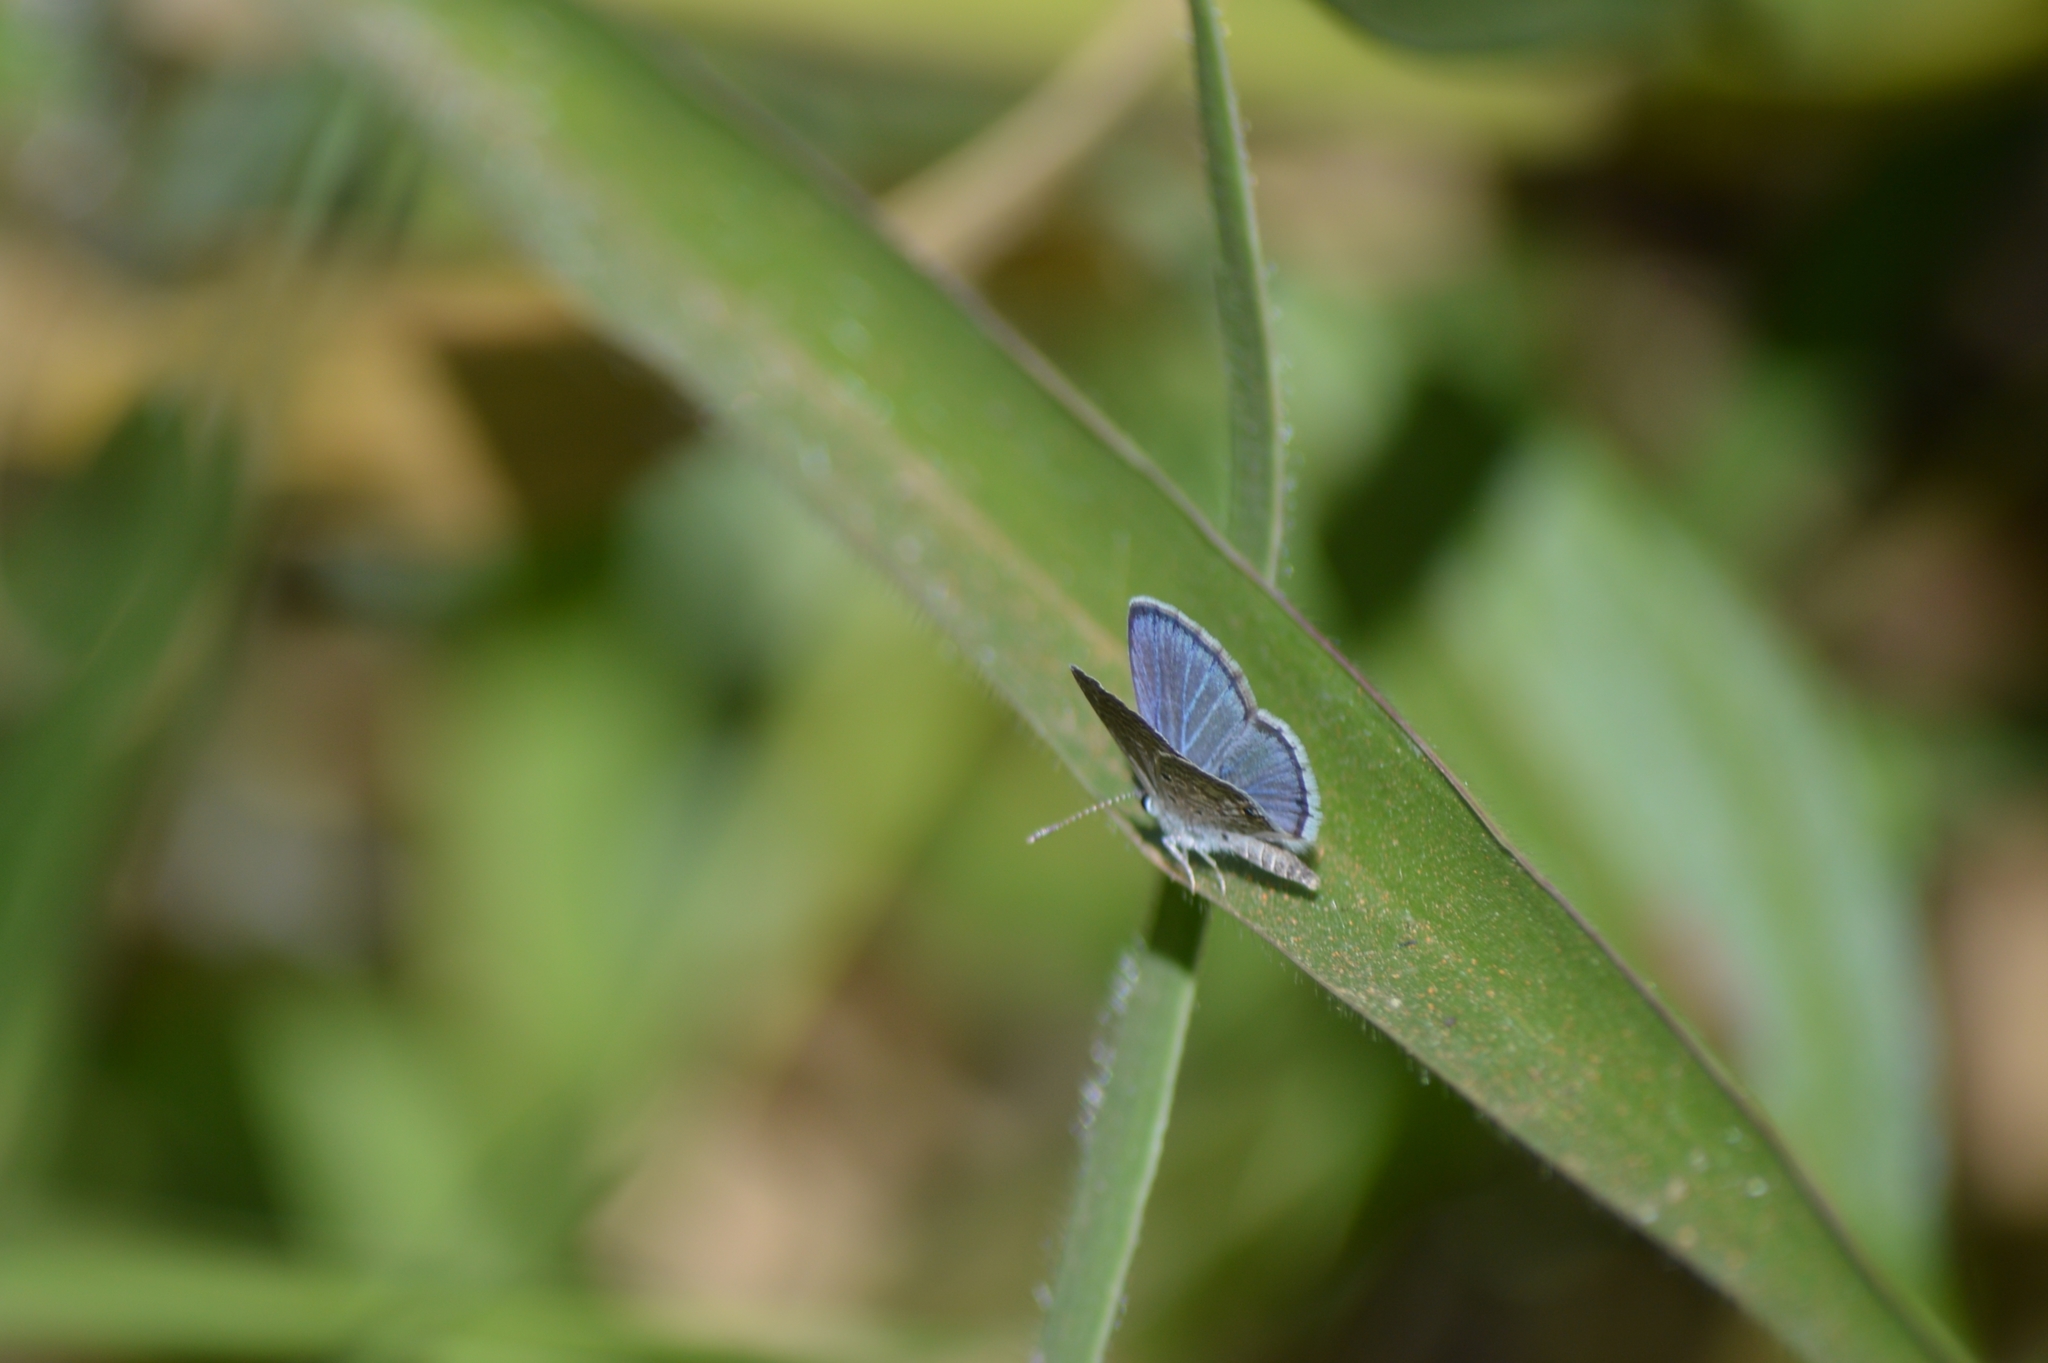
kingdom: Animalia
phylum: Arthropoda
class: Insecta
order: Lepidoptera
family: Lycaenidae
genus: Hemiargus
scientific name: Hemiargus hanno
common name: Common blue
